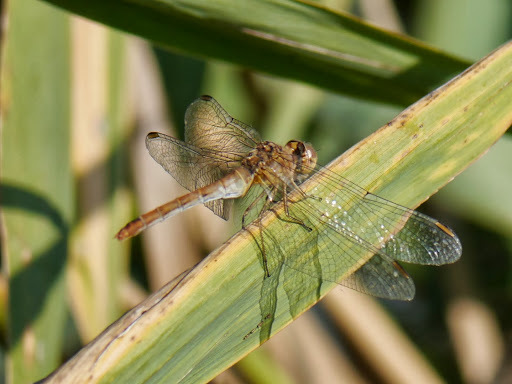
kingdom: Animalia
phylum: Arthropoda
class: Insecta
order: Odonata
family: Libellulidae
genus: Sympetrum
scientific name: Sympetrum meridionale
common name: Southern darter
